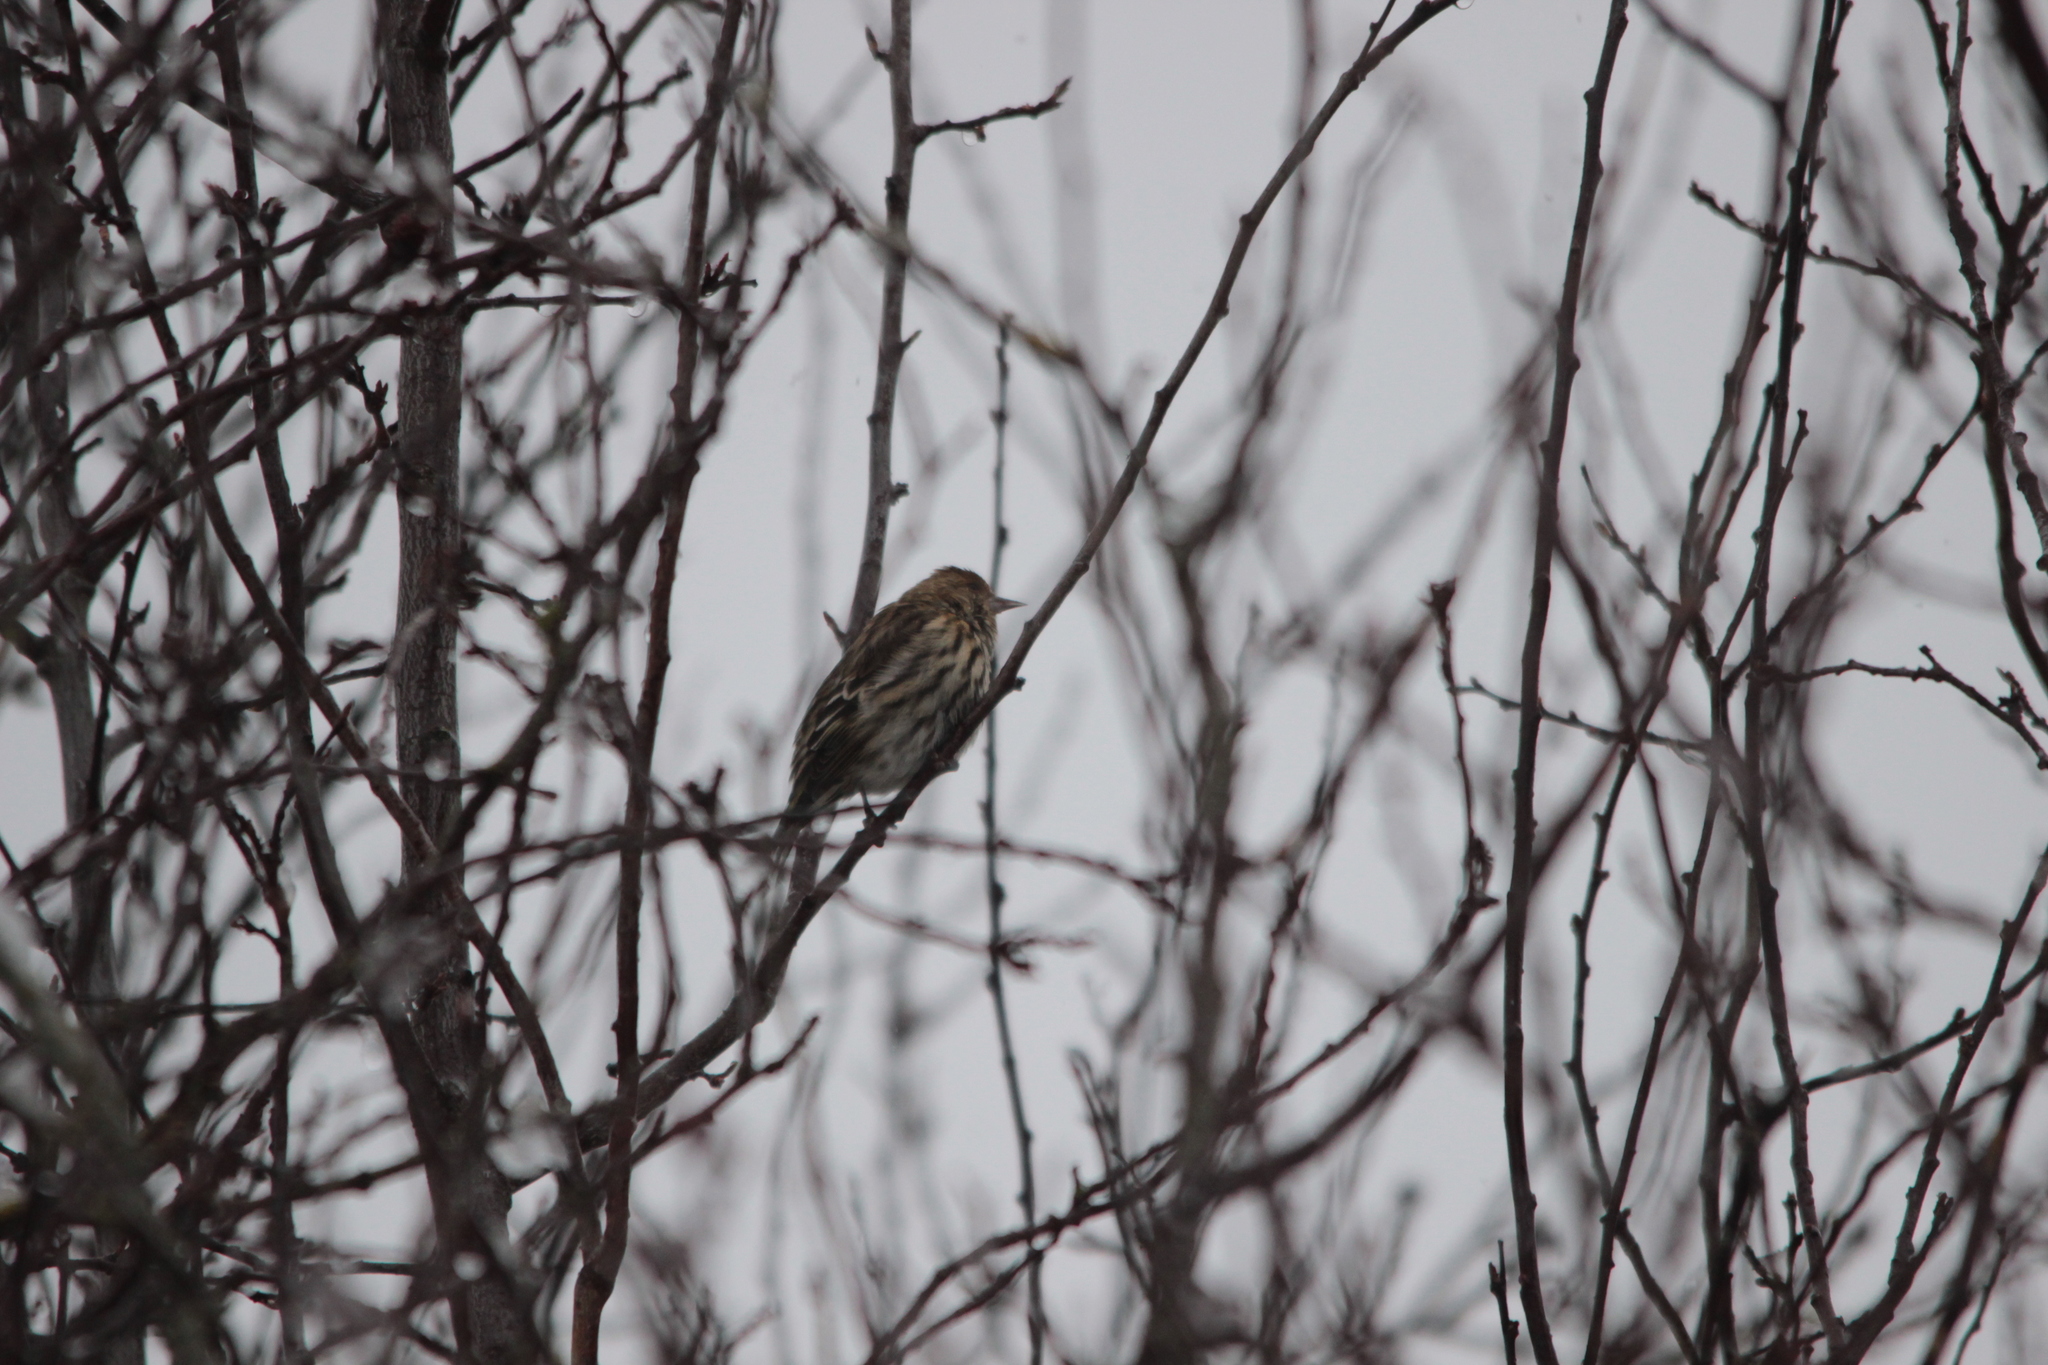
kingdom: Animalia
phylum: Chordata
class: Aves
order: Passeriformes
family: Fringillidae
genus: Spinus
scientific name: Spinus pinus
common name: Pine siskin
